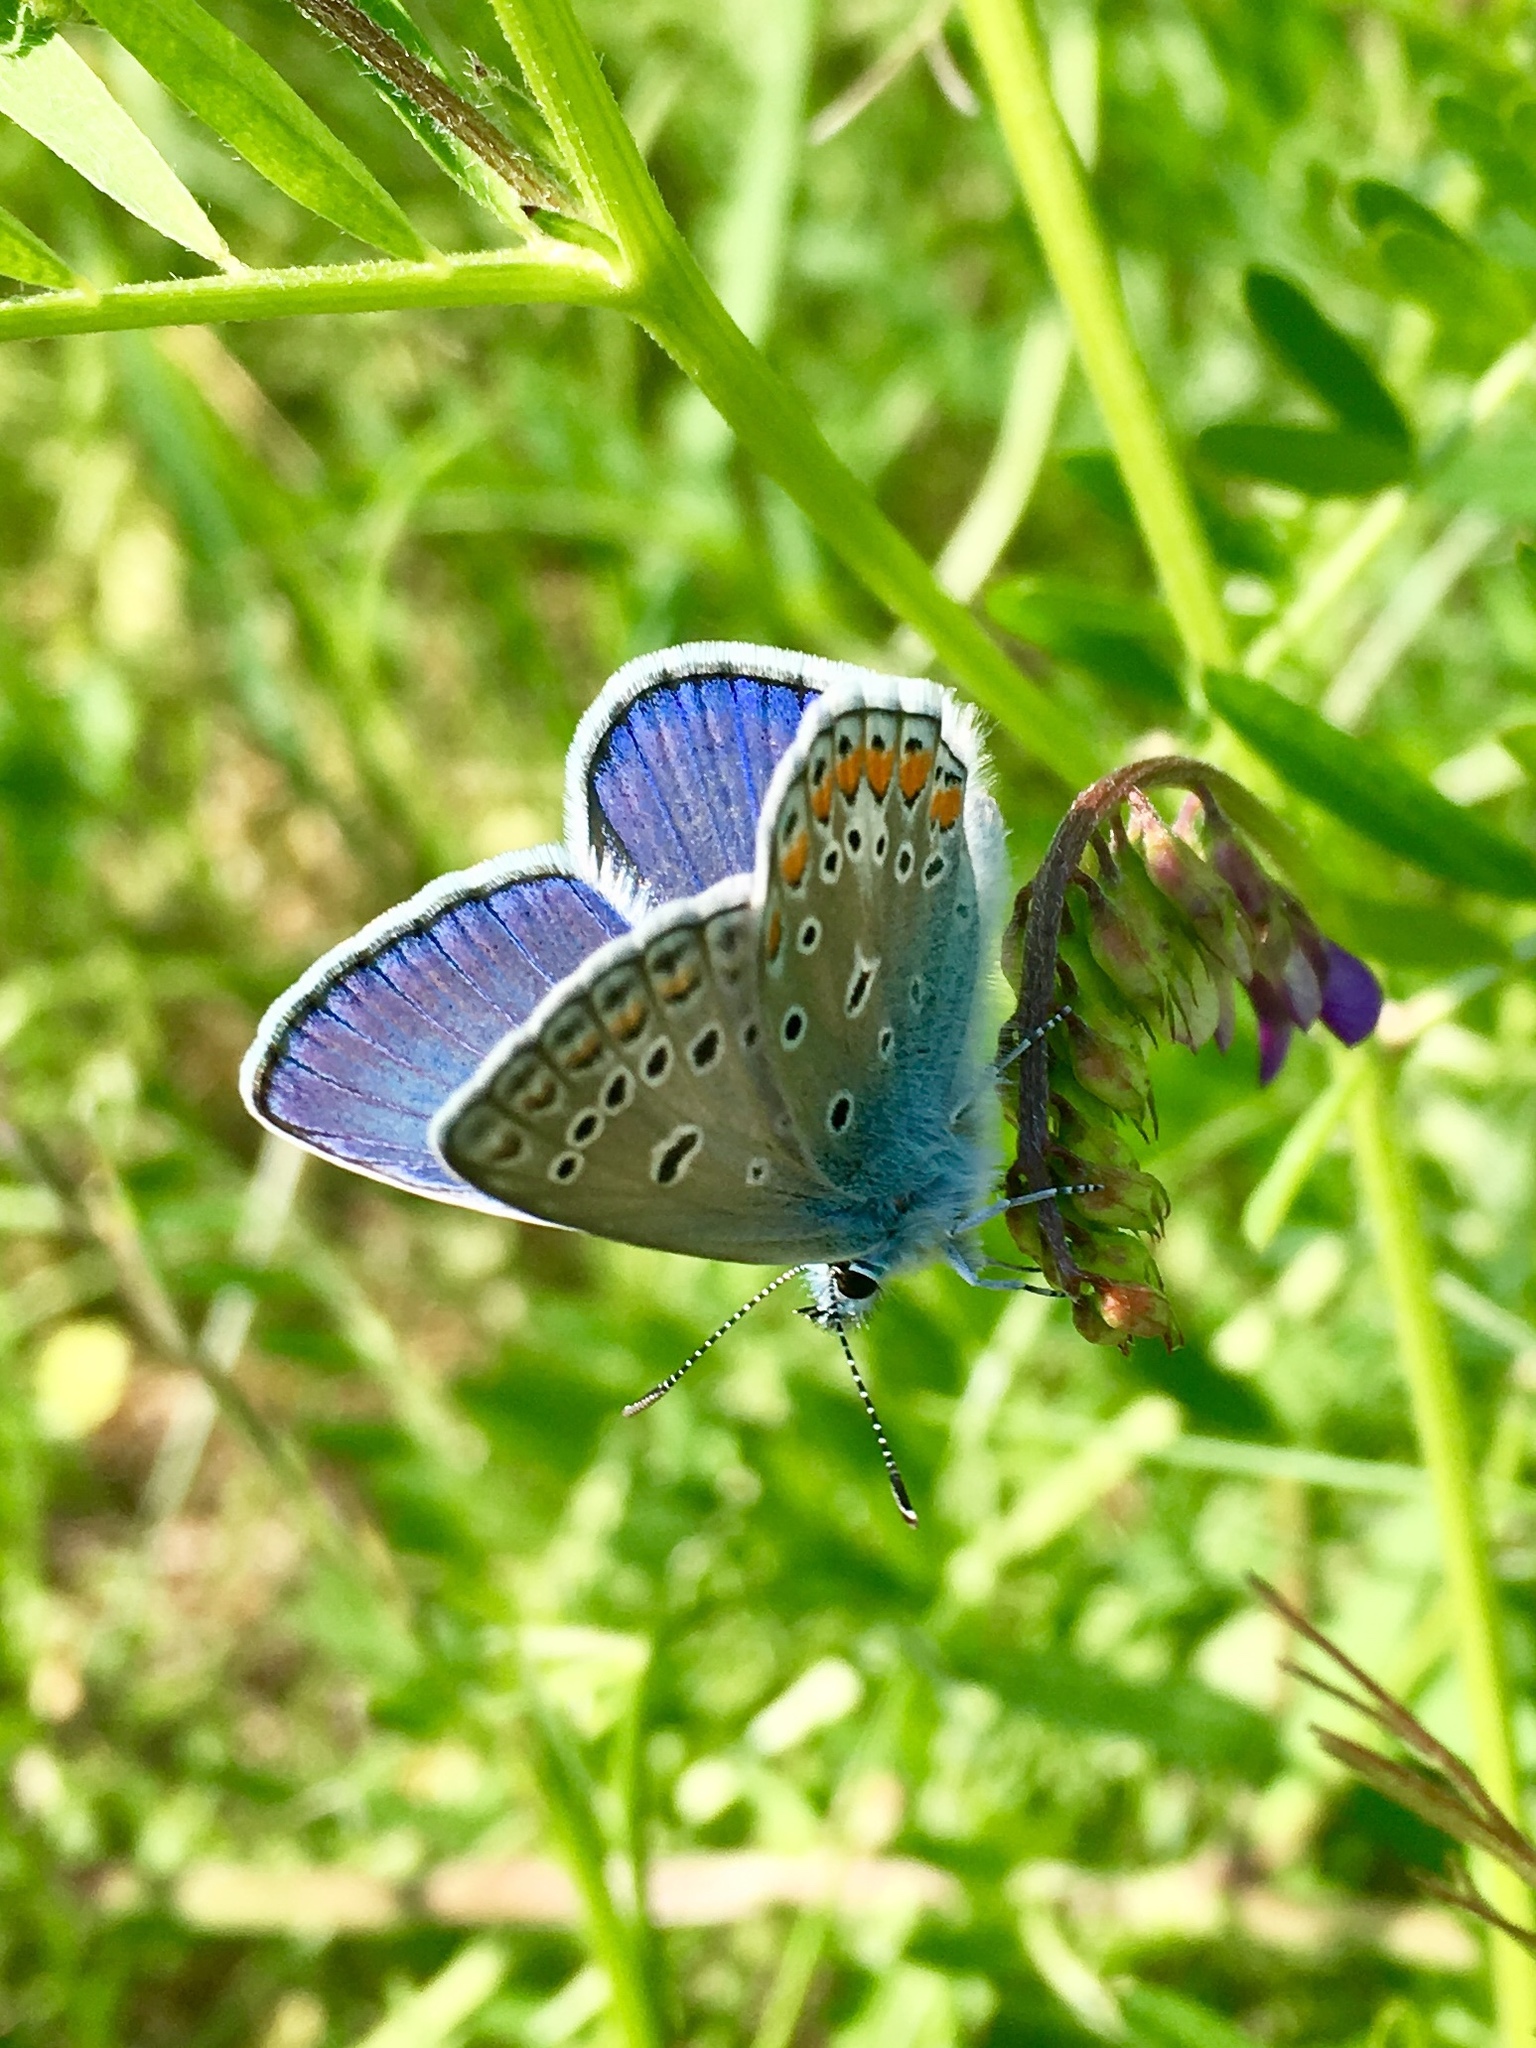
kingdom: Animalia
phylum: Arthropoda
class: Insecta
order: Lepidoptera
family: Lycaenidae
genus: Polyommatus
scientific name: Polyommatus icarus
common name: Common blue
